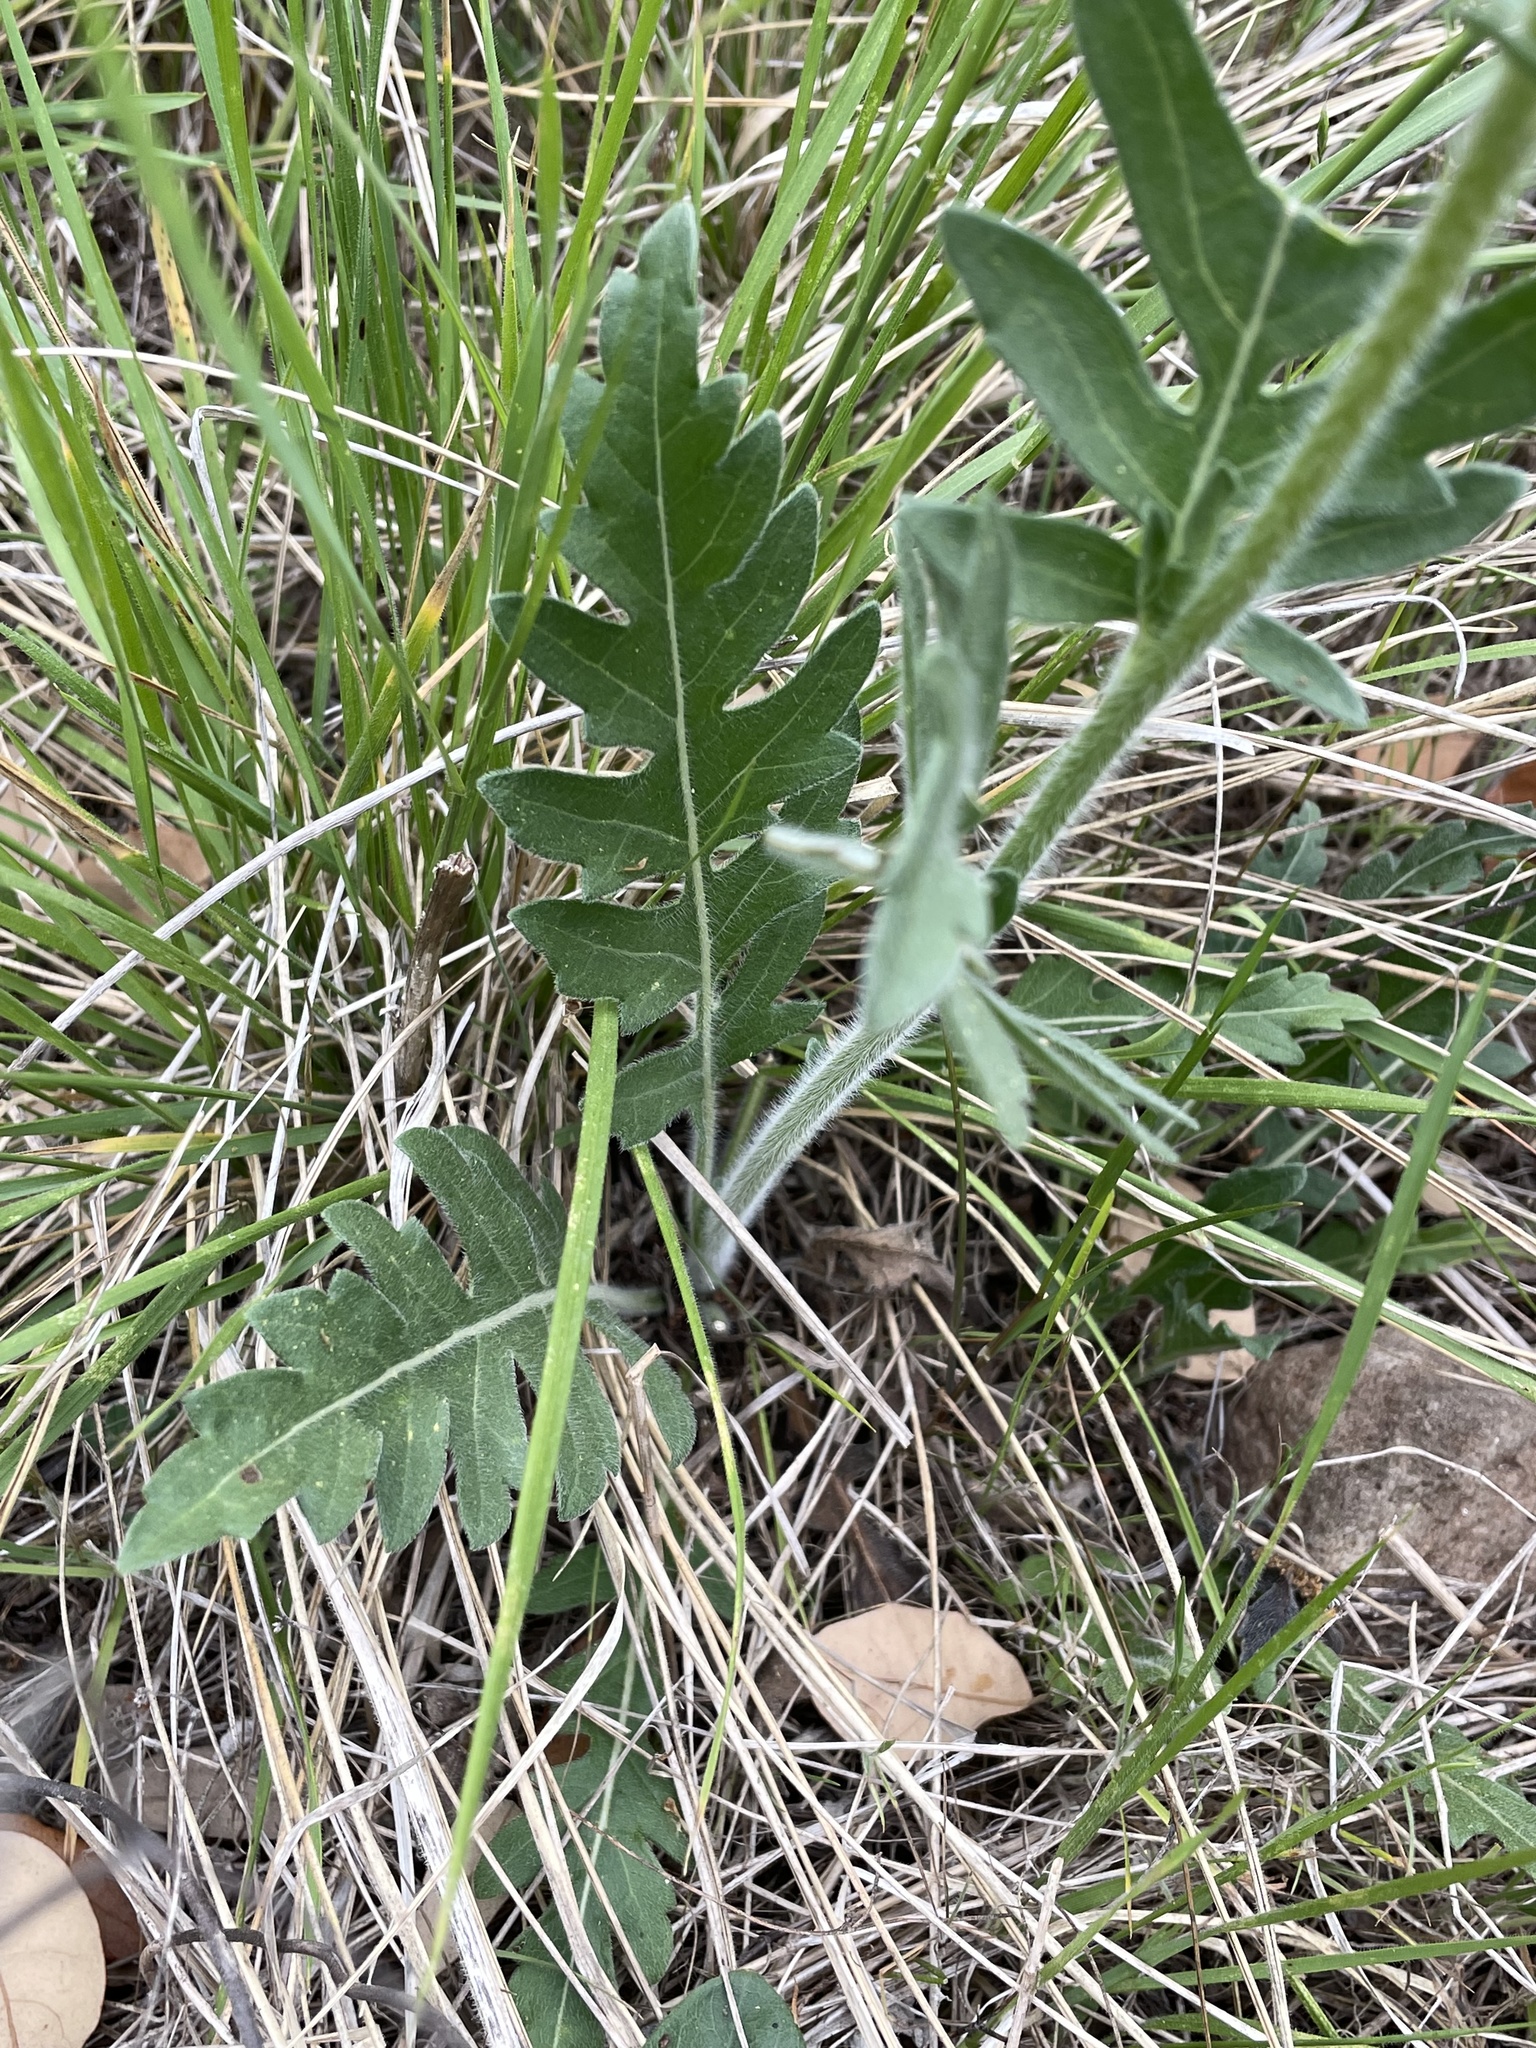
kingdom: Plantae
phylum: Tracheophyta
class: Magnoliopsida
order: Asterales
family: Asteraceae
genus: Engelmannia
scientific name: Engelmannia peristenia
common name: Engelmann's daisy
